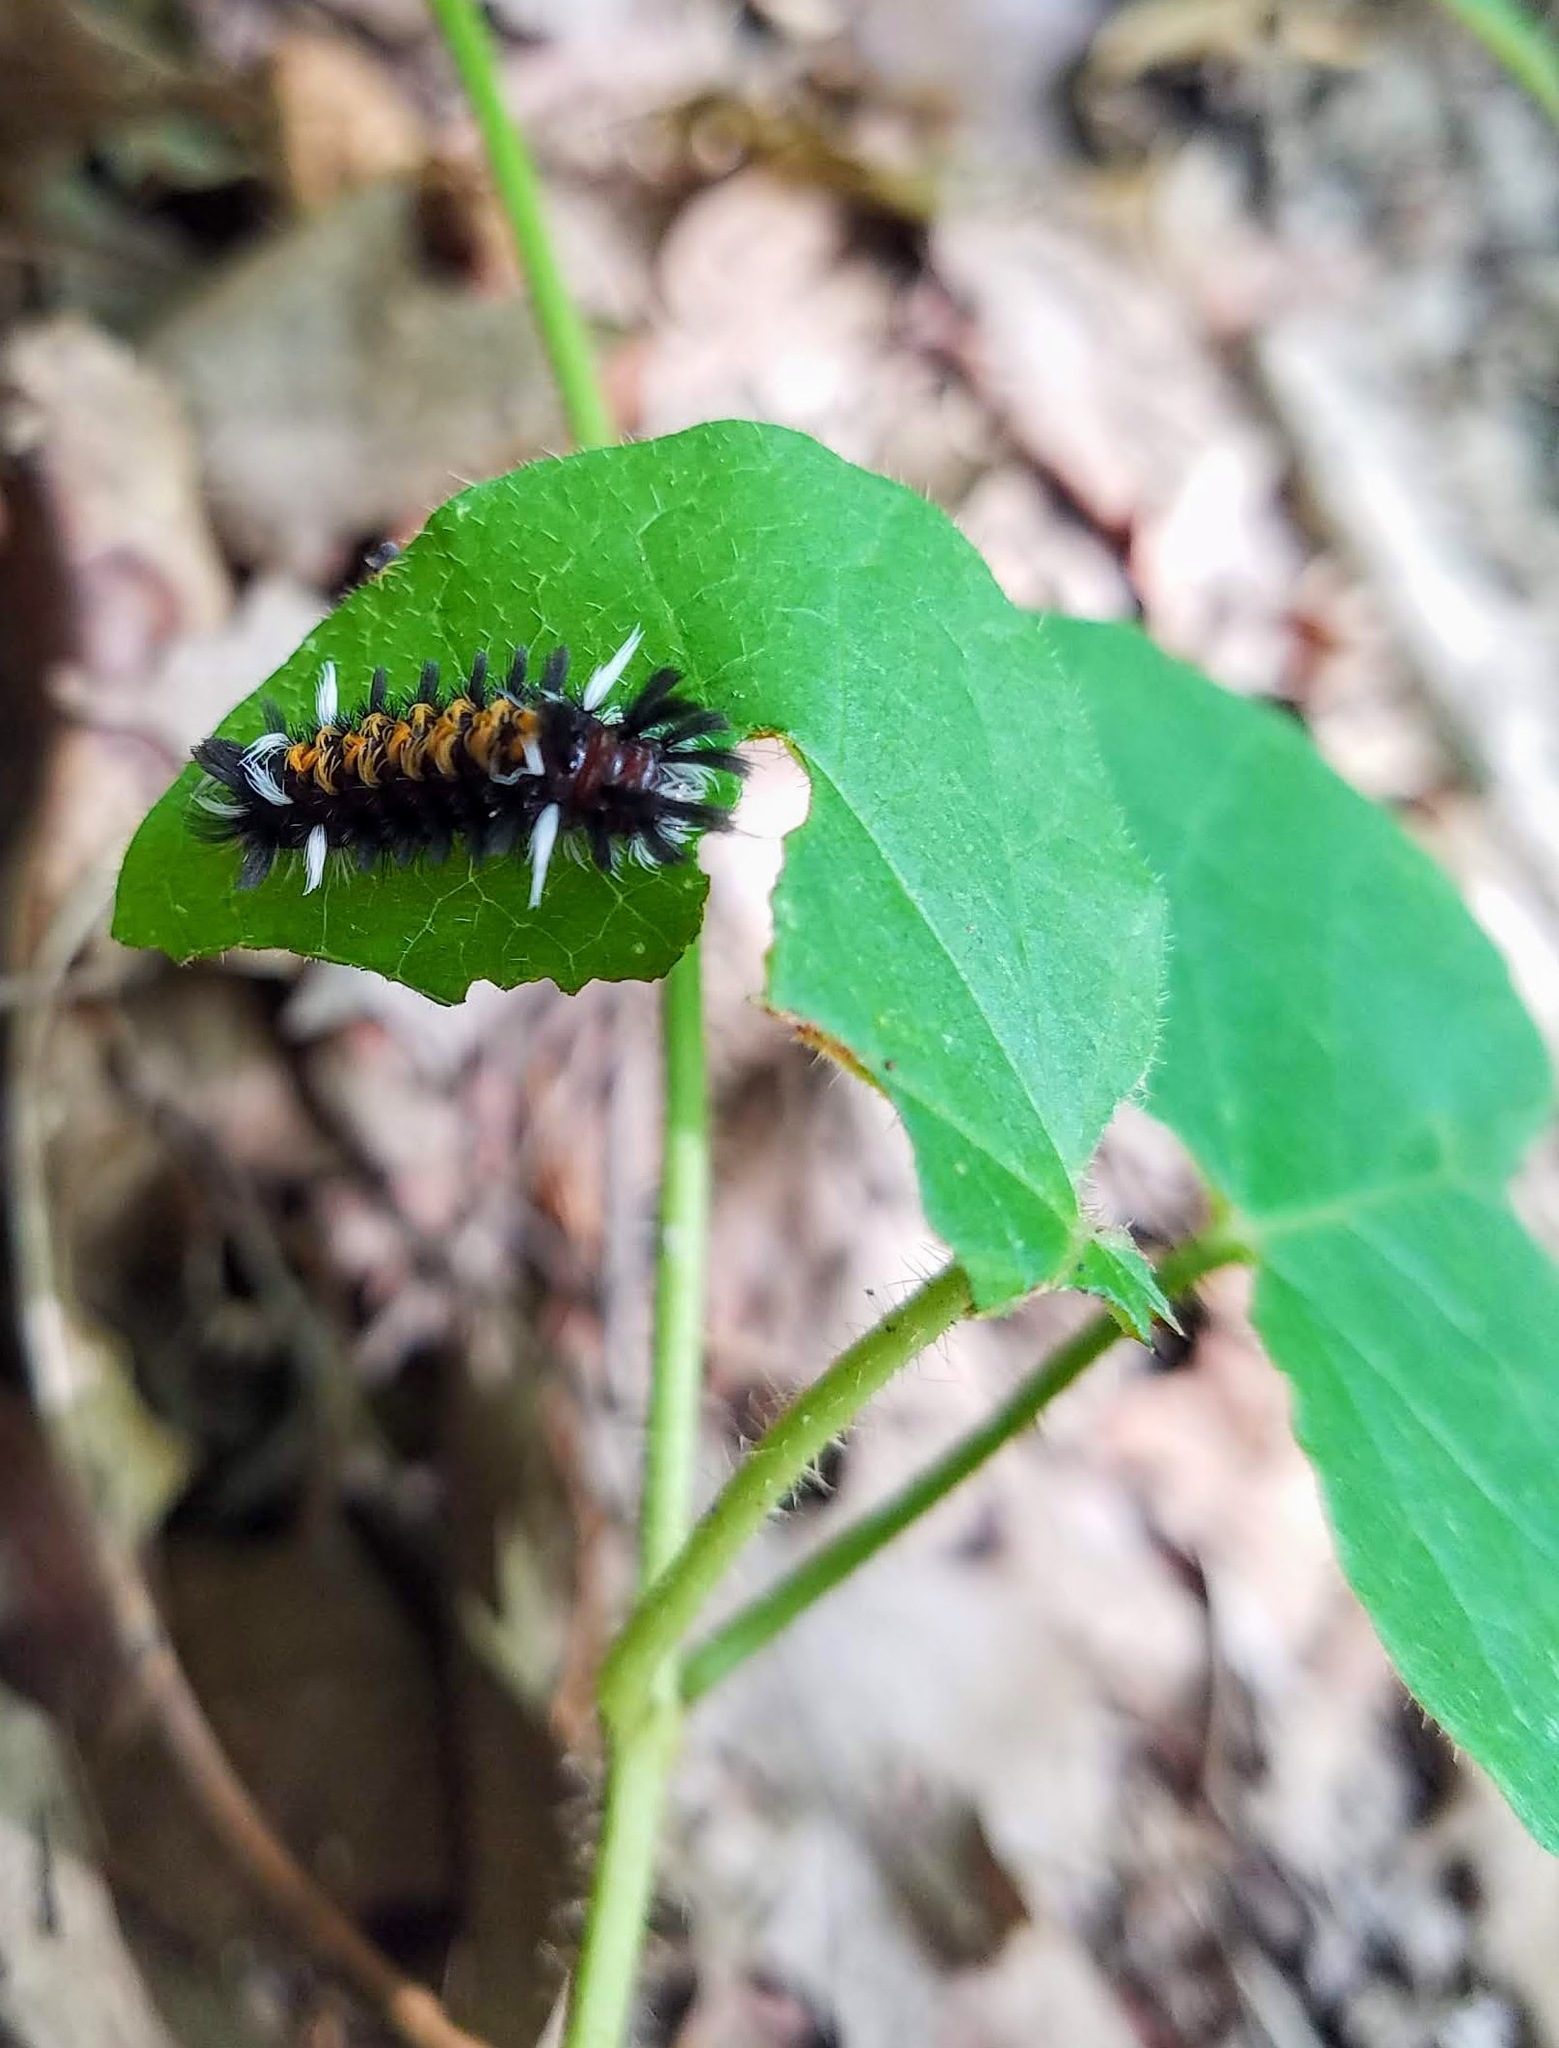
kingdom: Animalia
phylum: Arthropoda
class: Insecta
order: Lepidoptera
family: Erebidae
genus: Euchaetes
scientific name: Euchaetes egle
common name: Milkweed tussock moth
